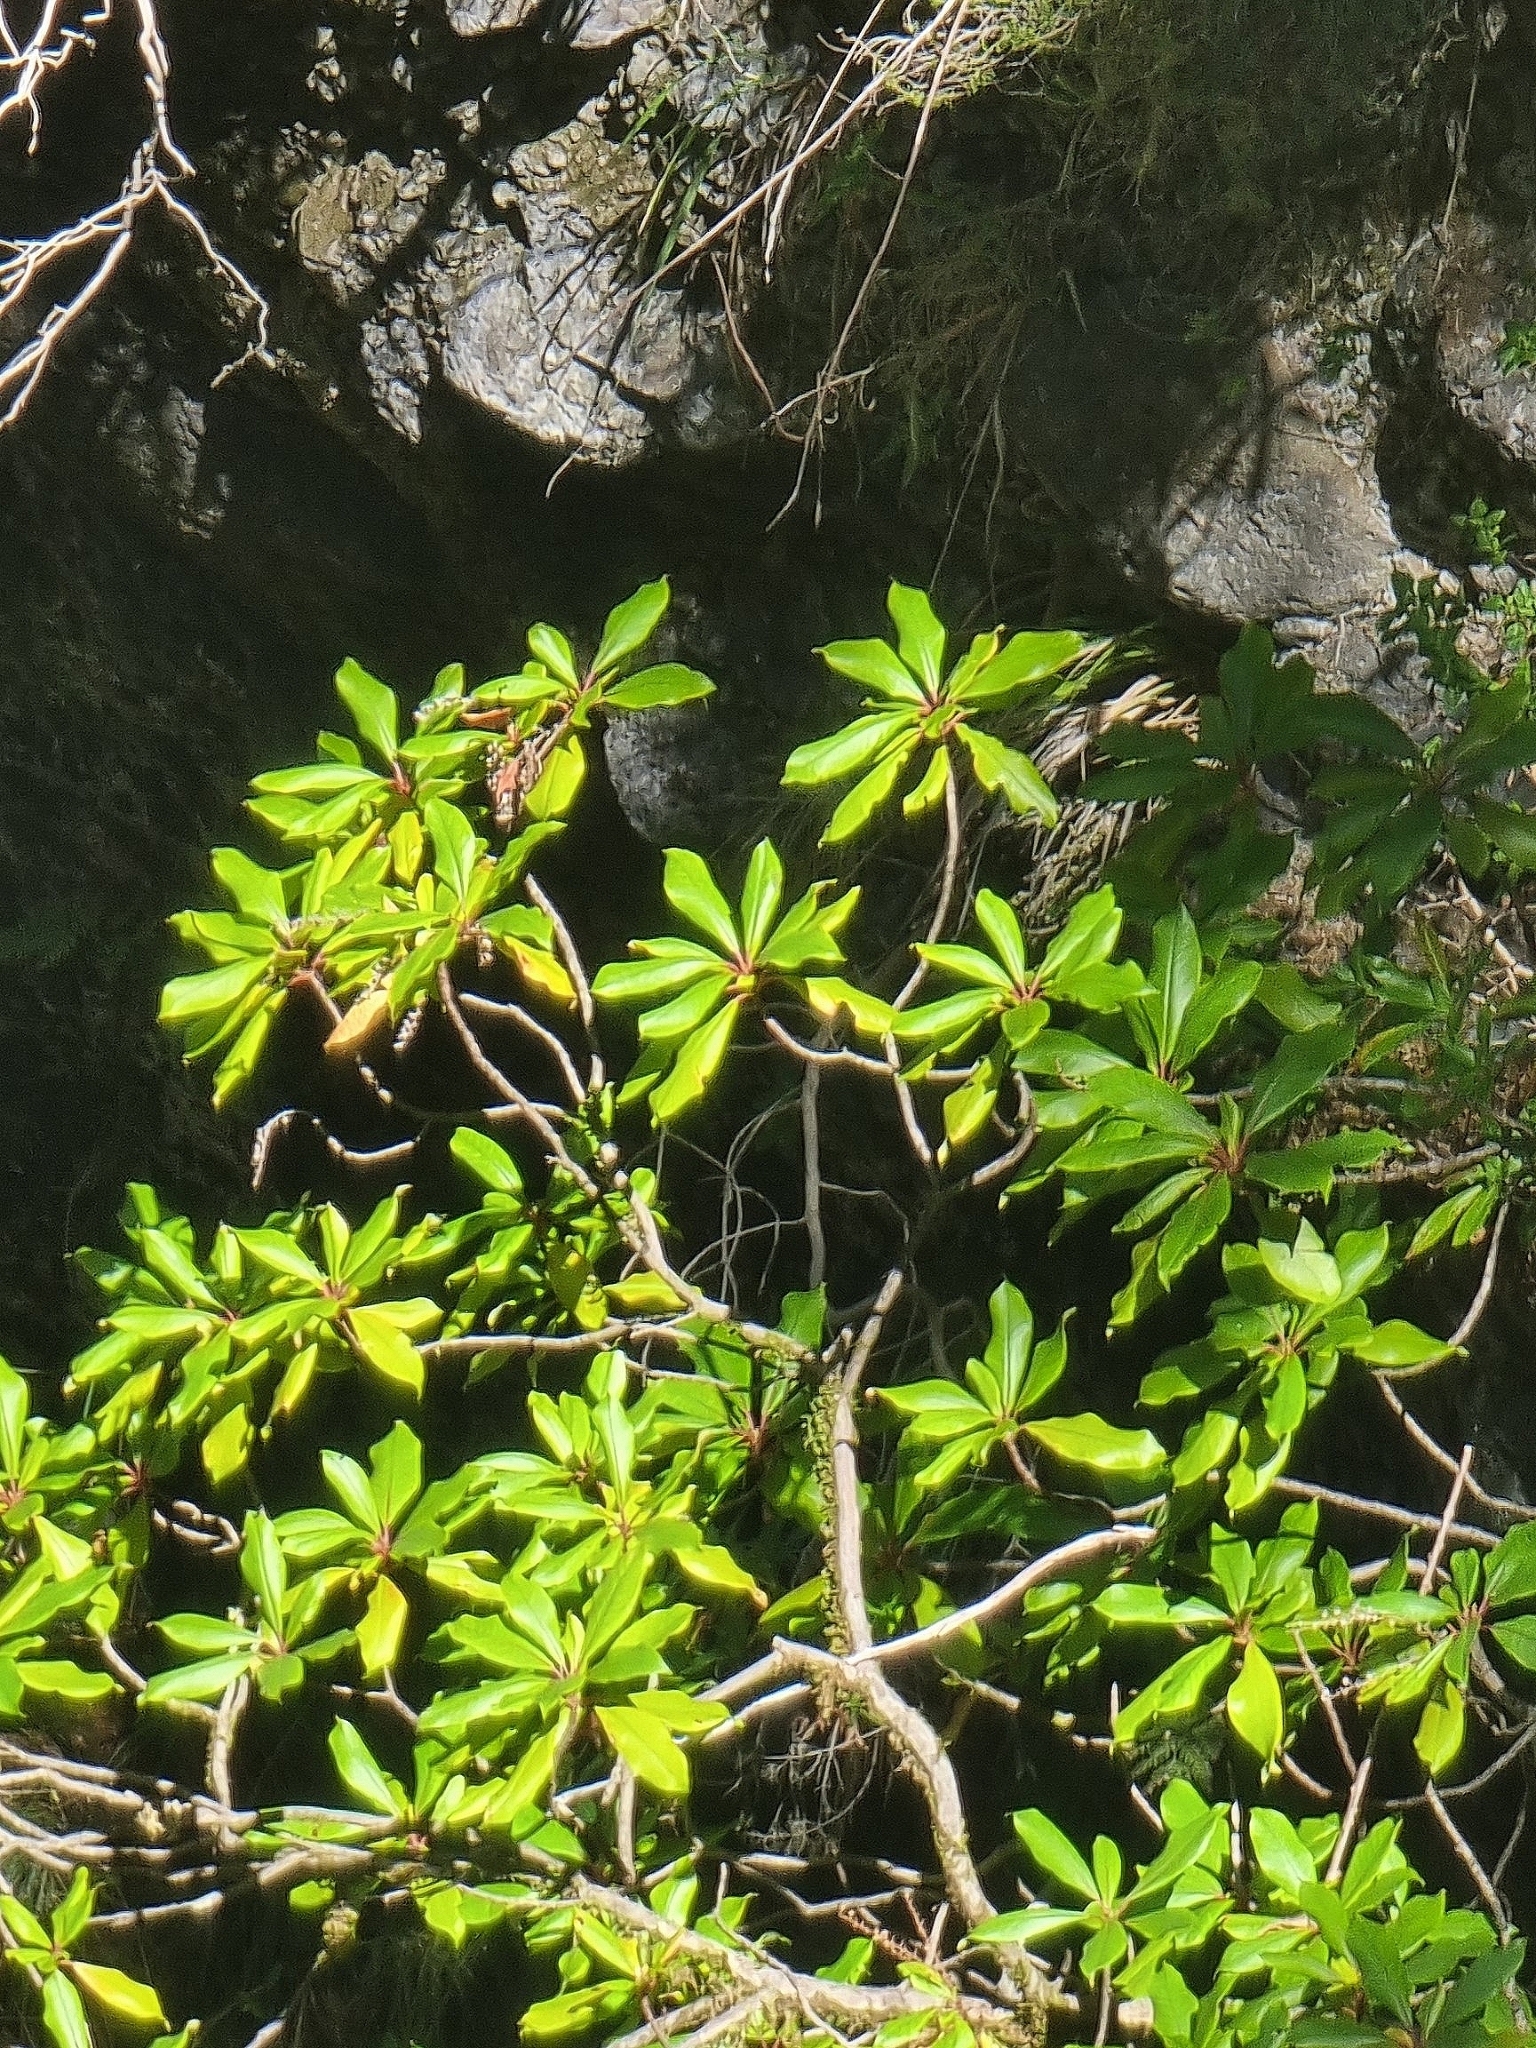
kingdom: Plantae
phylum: Tracheophyta
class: Magnoliopsida
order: Ericales
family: Clethraceae
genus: Clethra
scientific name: Clethra arborea
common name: Lily-of-the-valley-tree
